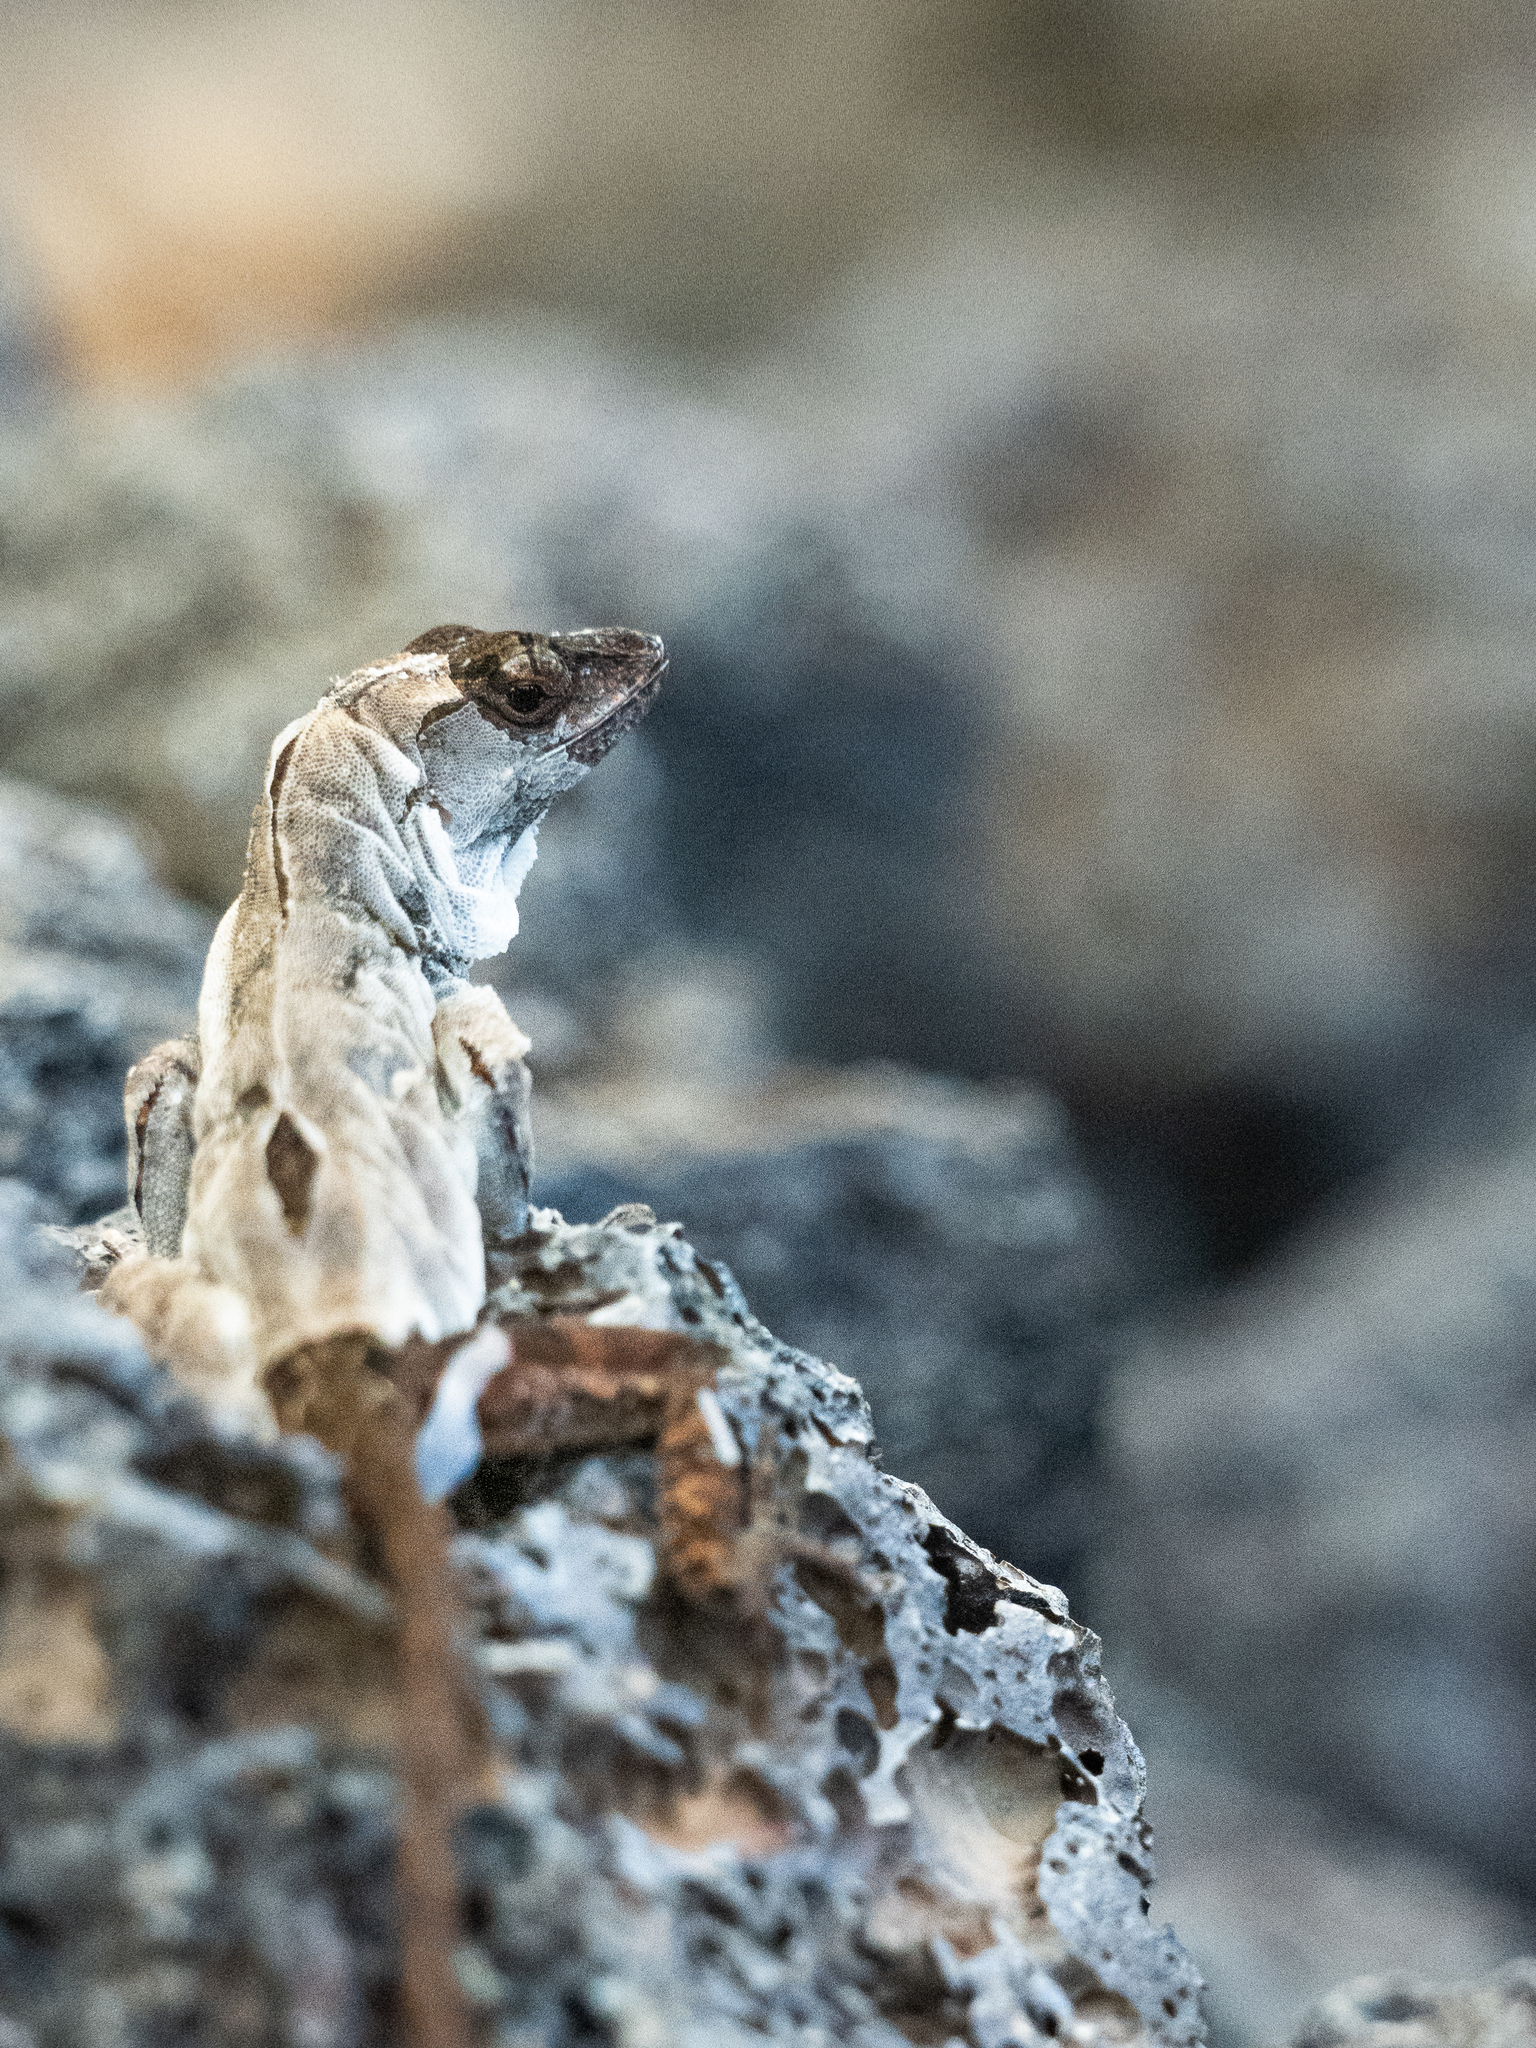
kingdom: Animalia
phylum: Chordata
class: Squamata
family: Dactyloidae
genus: Anolis
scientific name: Anolis sagrei
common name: Brown anole
